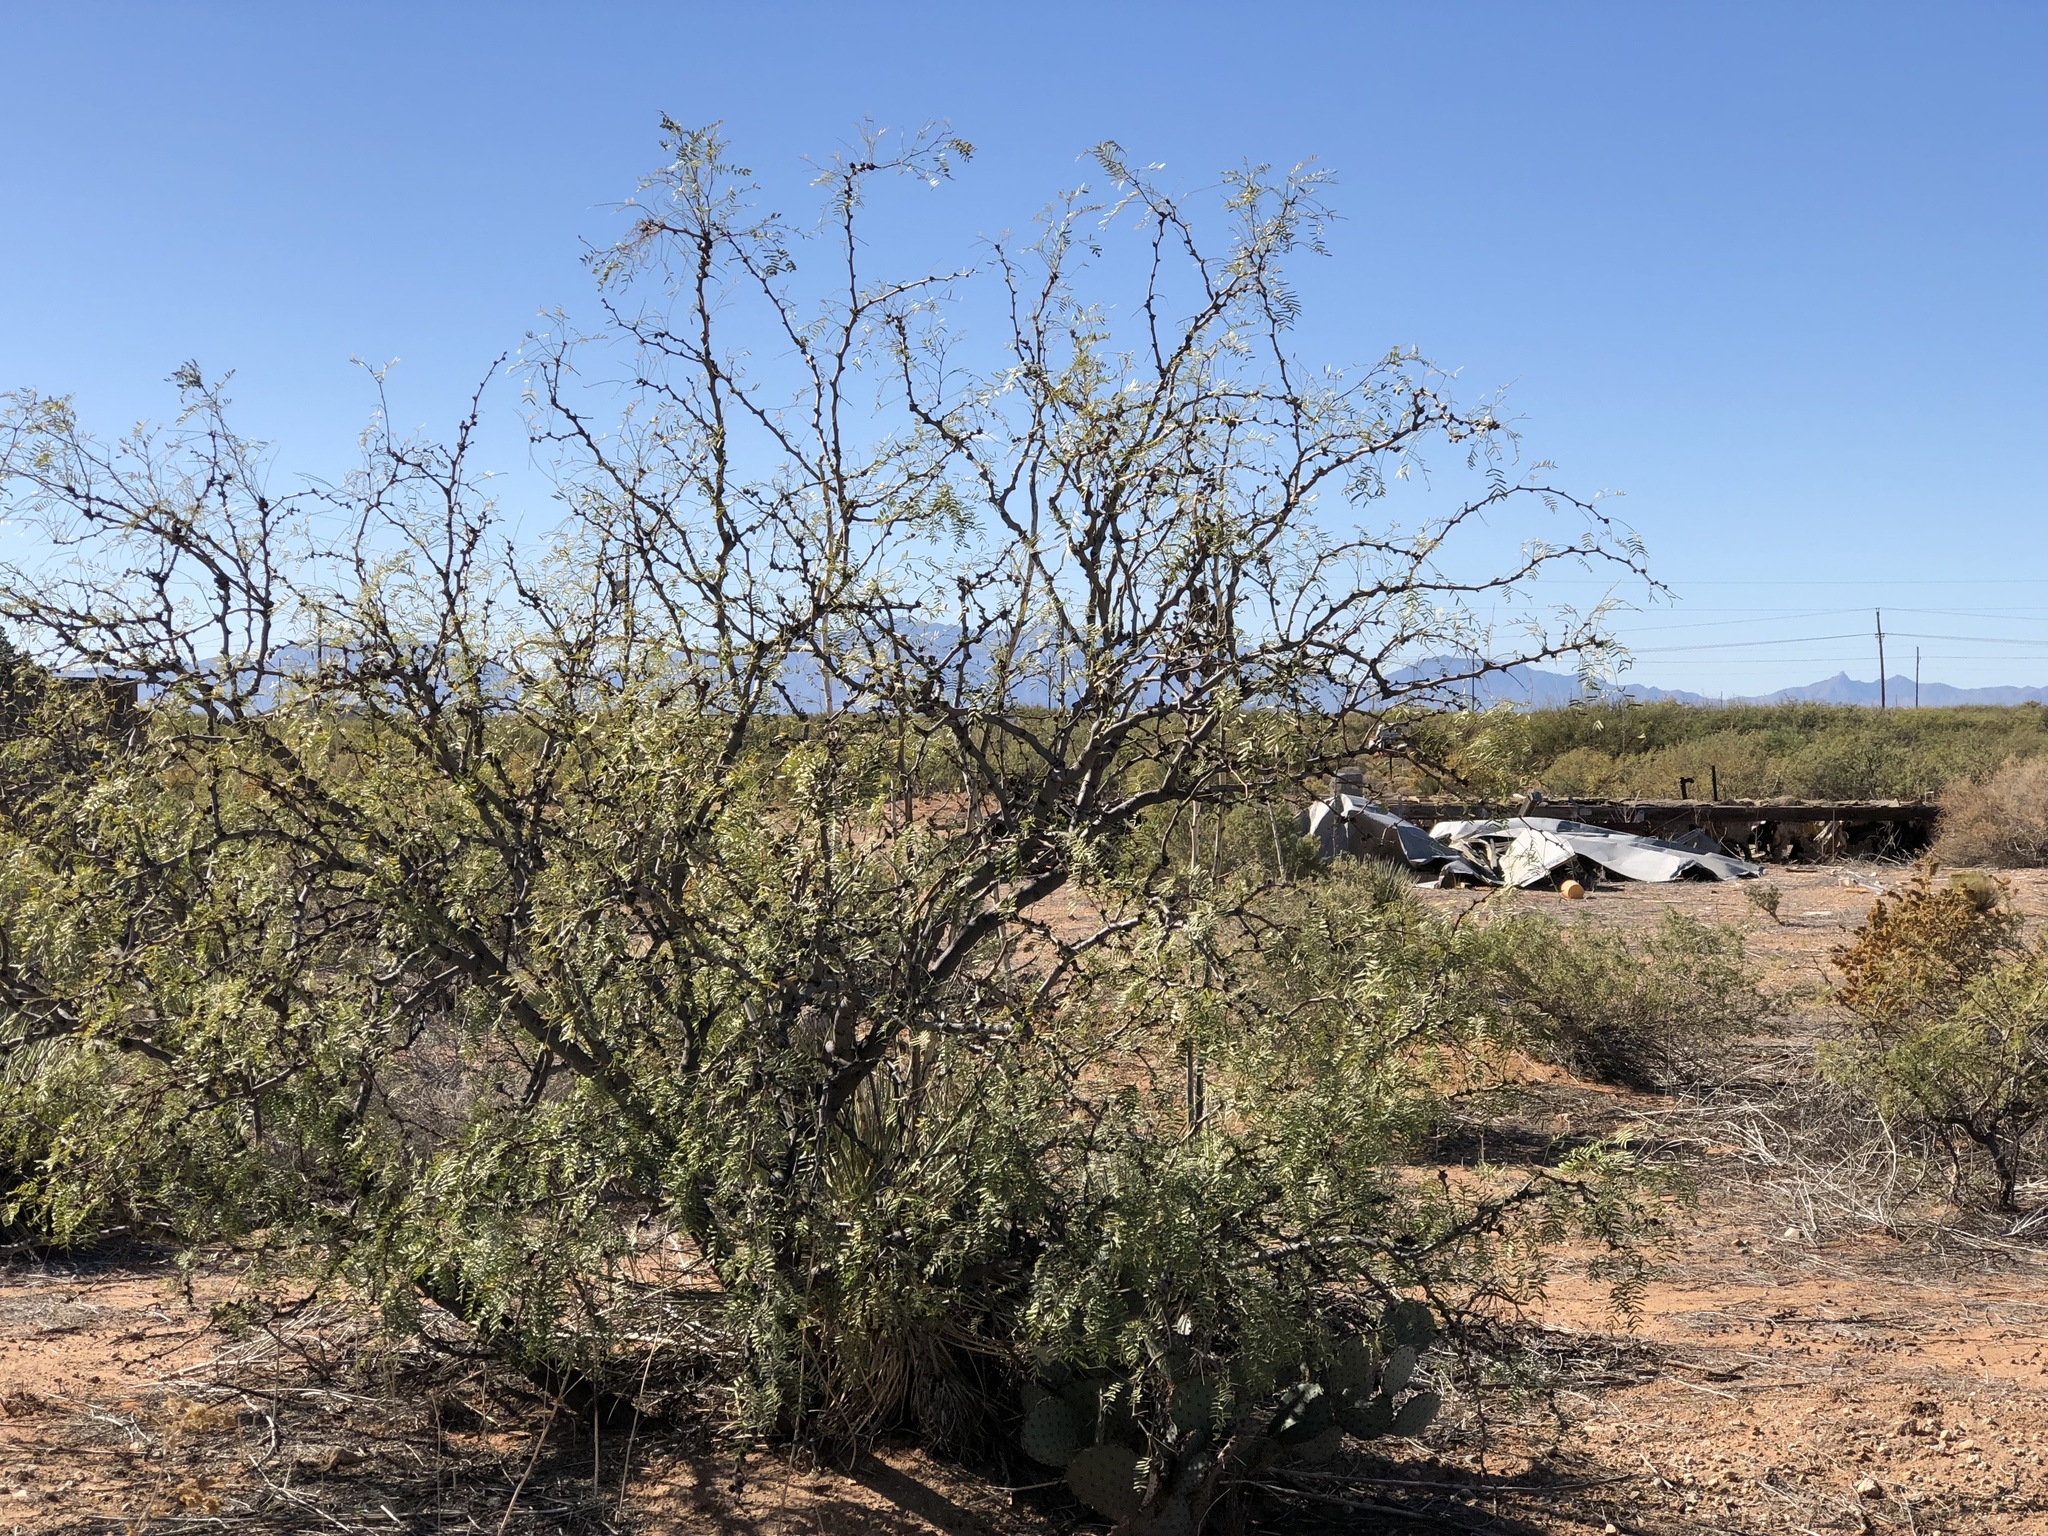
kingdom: Plantae
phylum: Tracheophyta
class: Magnoliopsida
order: Fabales
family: Fabaceae
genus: Prosopis
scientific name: Prosopis glandulosa
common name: Honey mesquite
